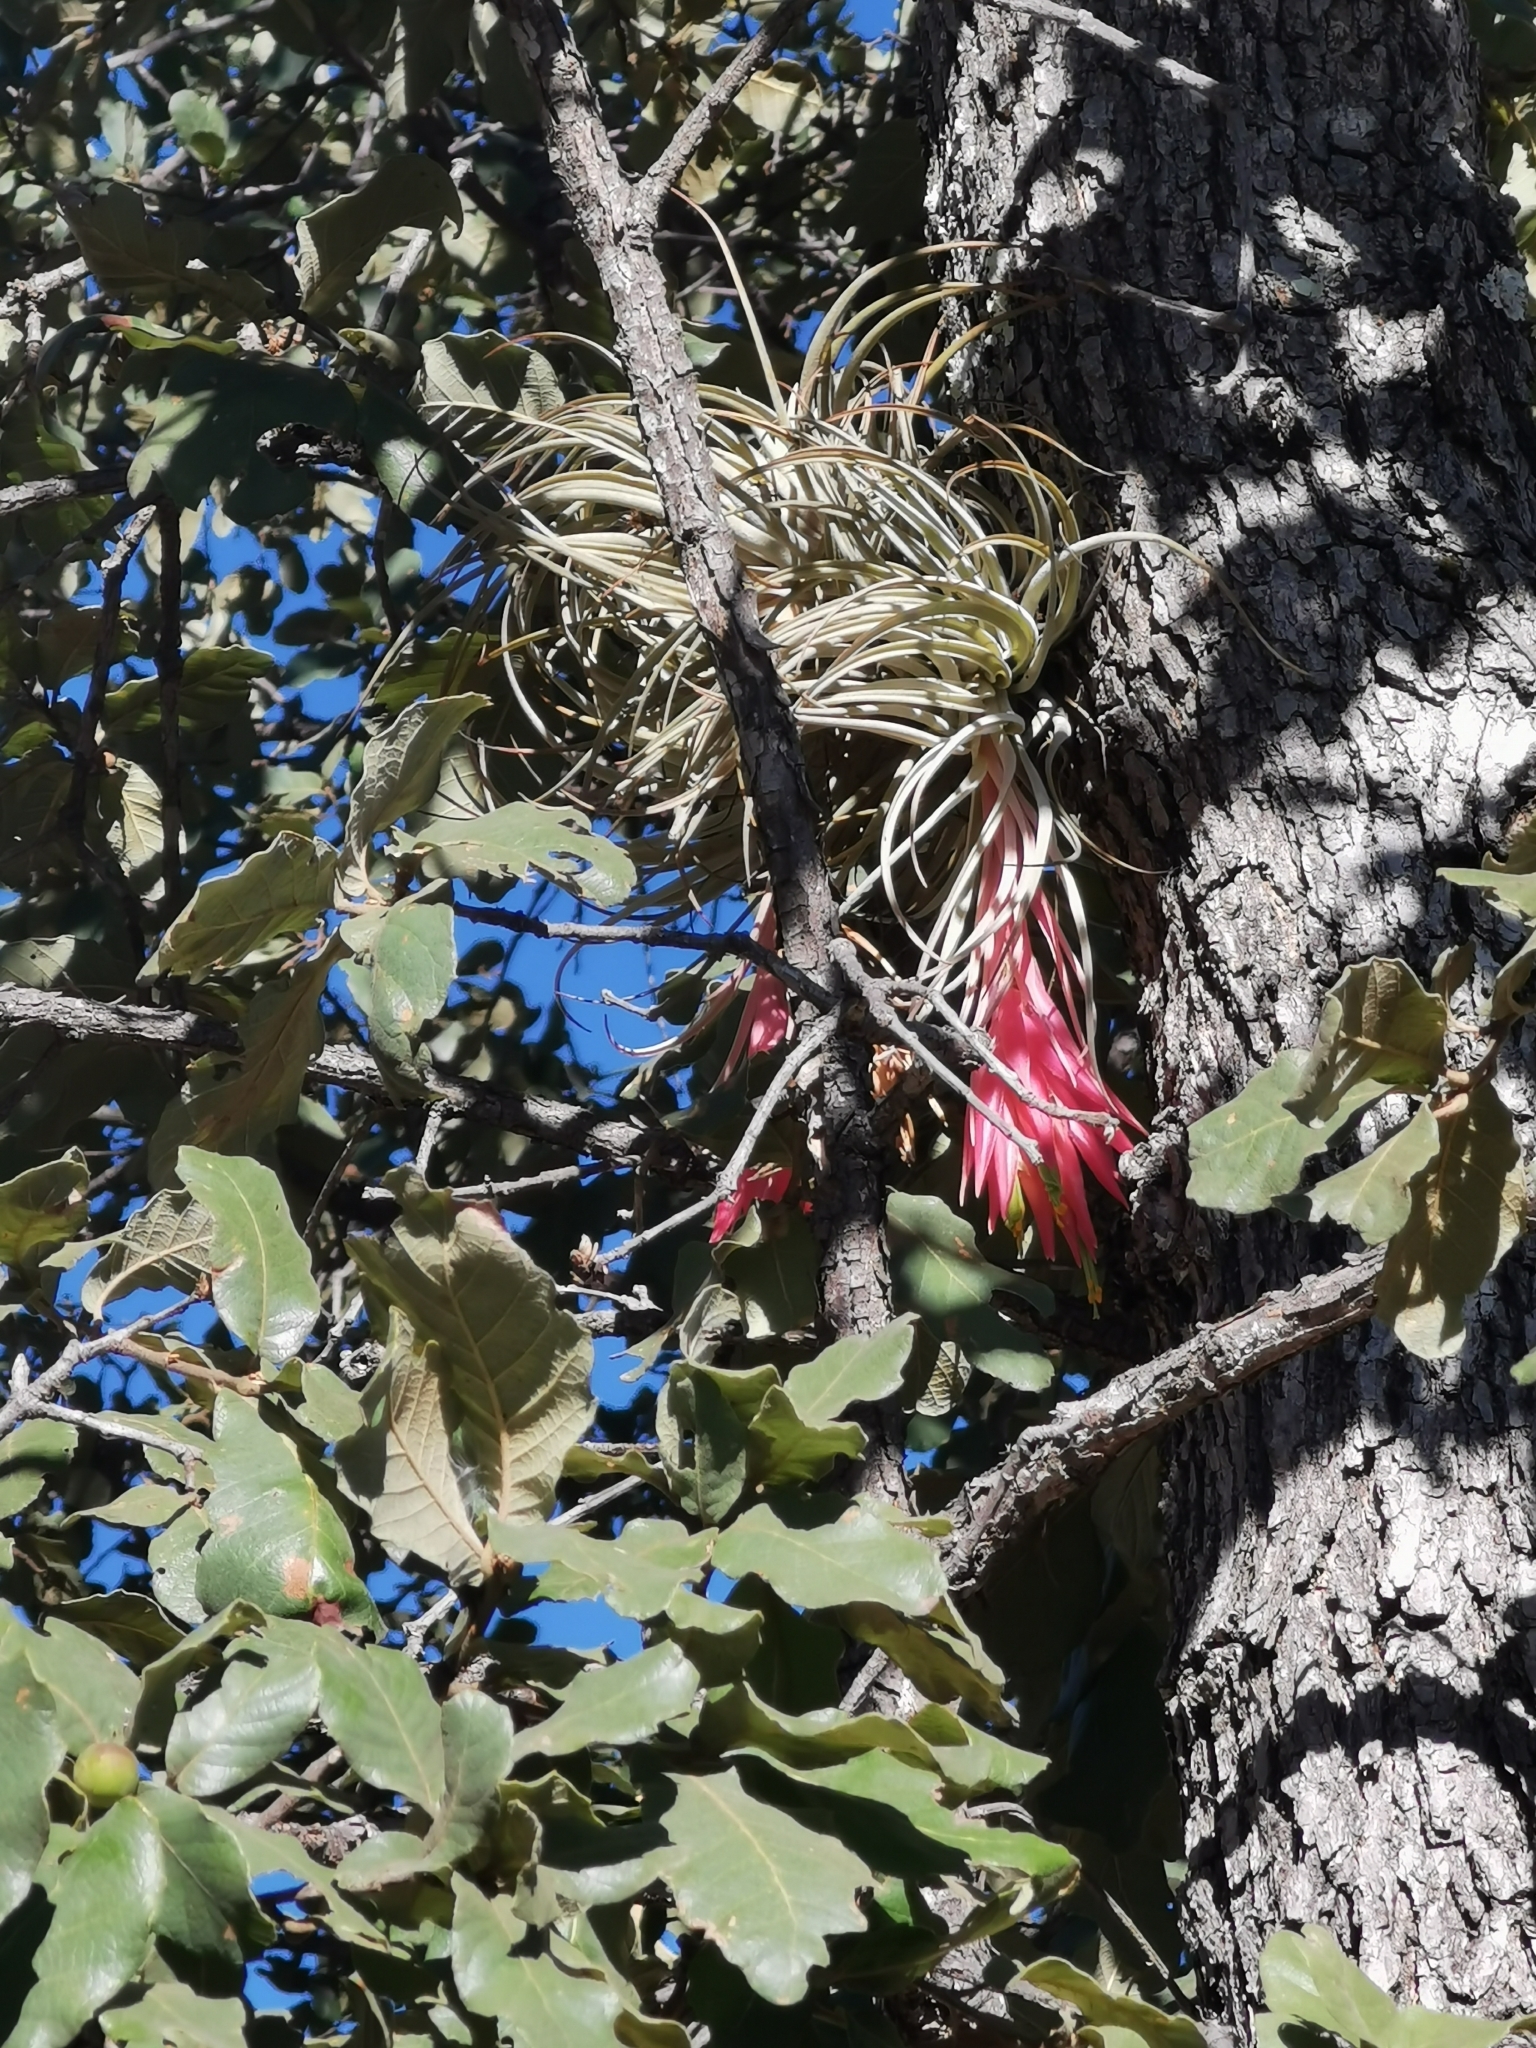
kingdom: Plantae
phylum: Tracheophyta
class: Liliopsida
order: Poales
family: Bromeliaceae
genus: Tillandsia
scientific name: Tillandsia erubescens
